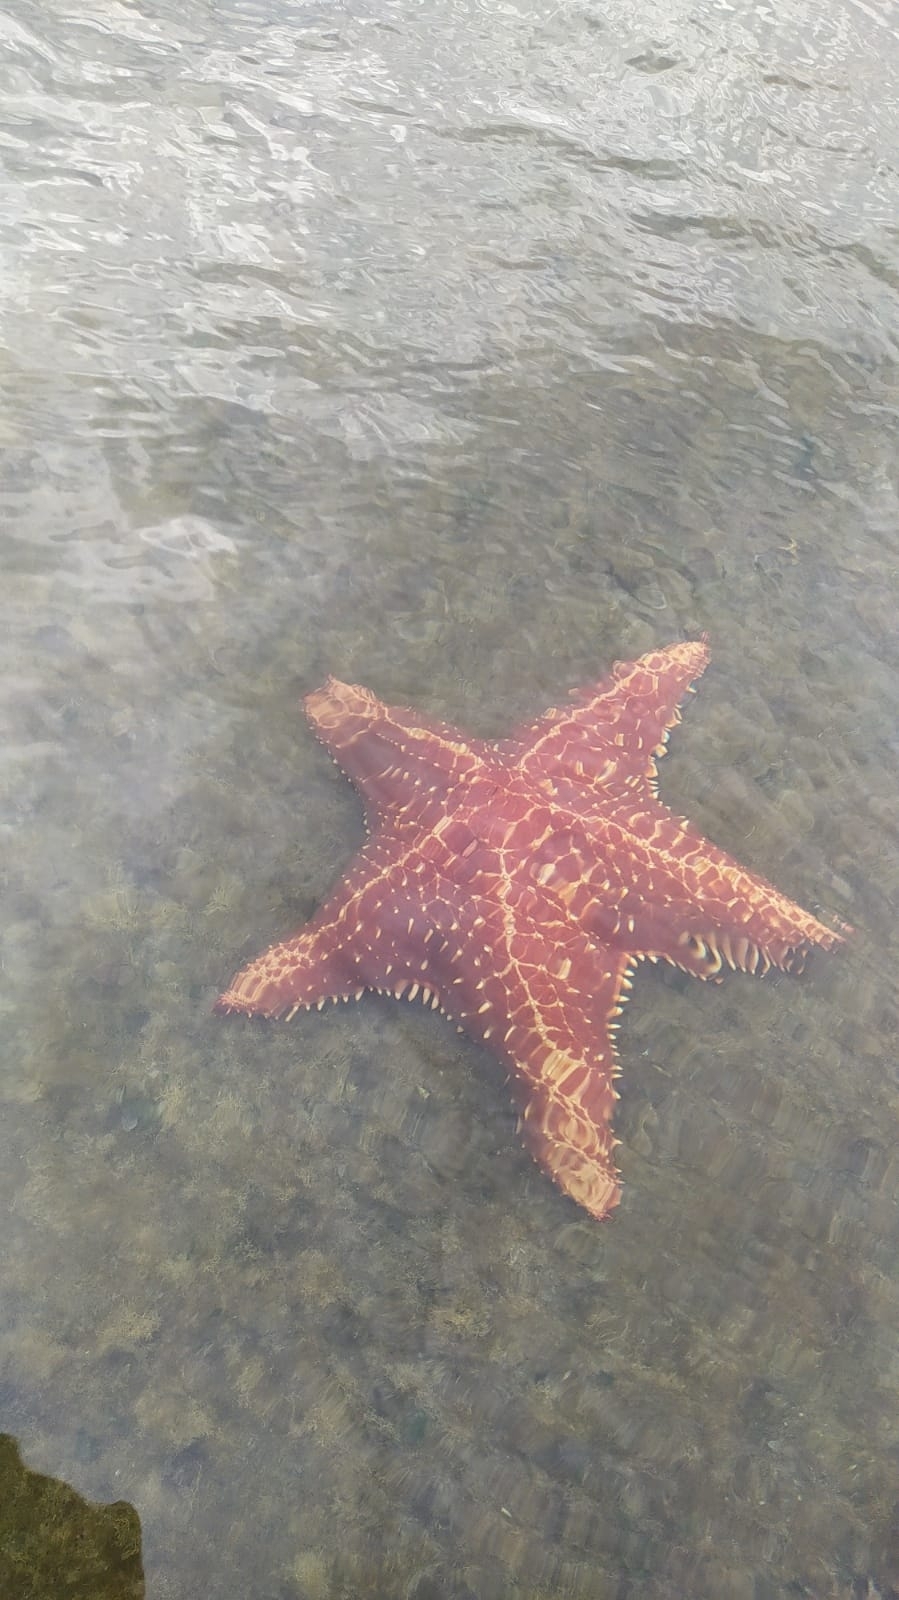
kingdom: Animalia
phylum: Echinodermata
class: Asteroidea
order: Valvatida
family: Oreasteridae
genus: Oreaster
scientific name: Oreaster reticulatus
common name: Cushion sea star
